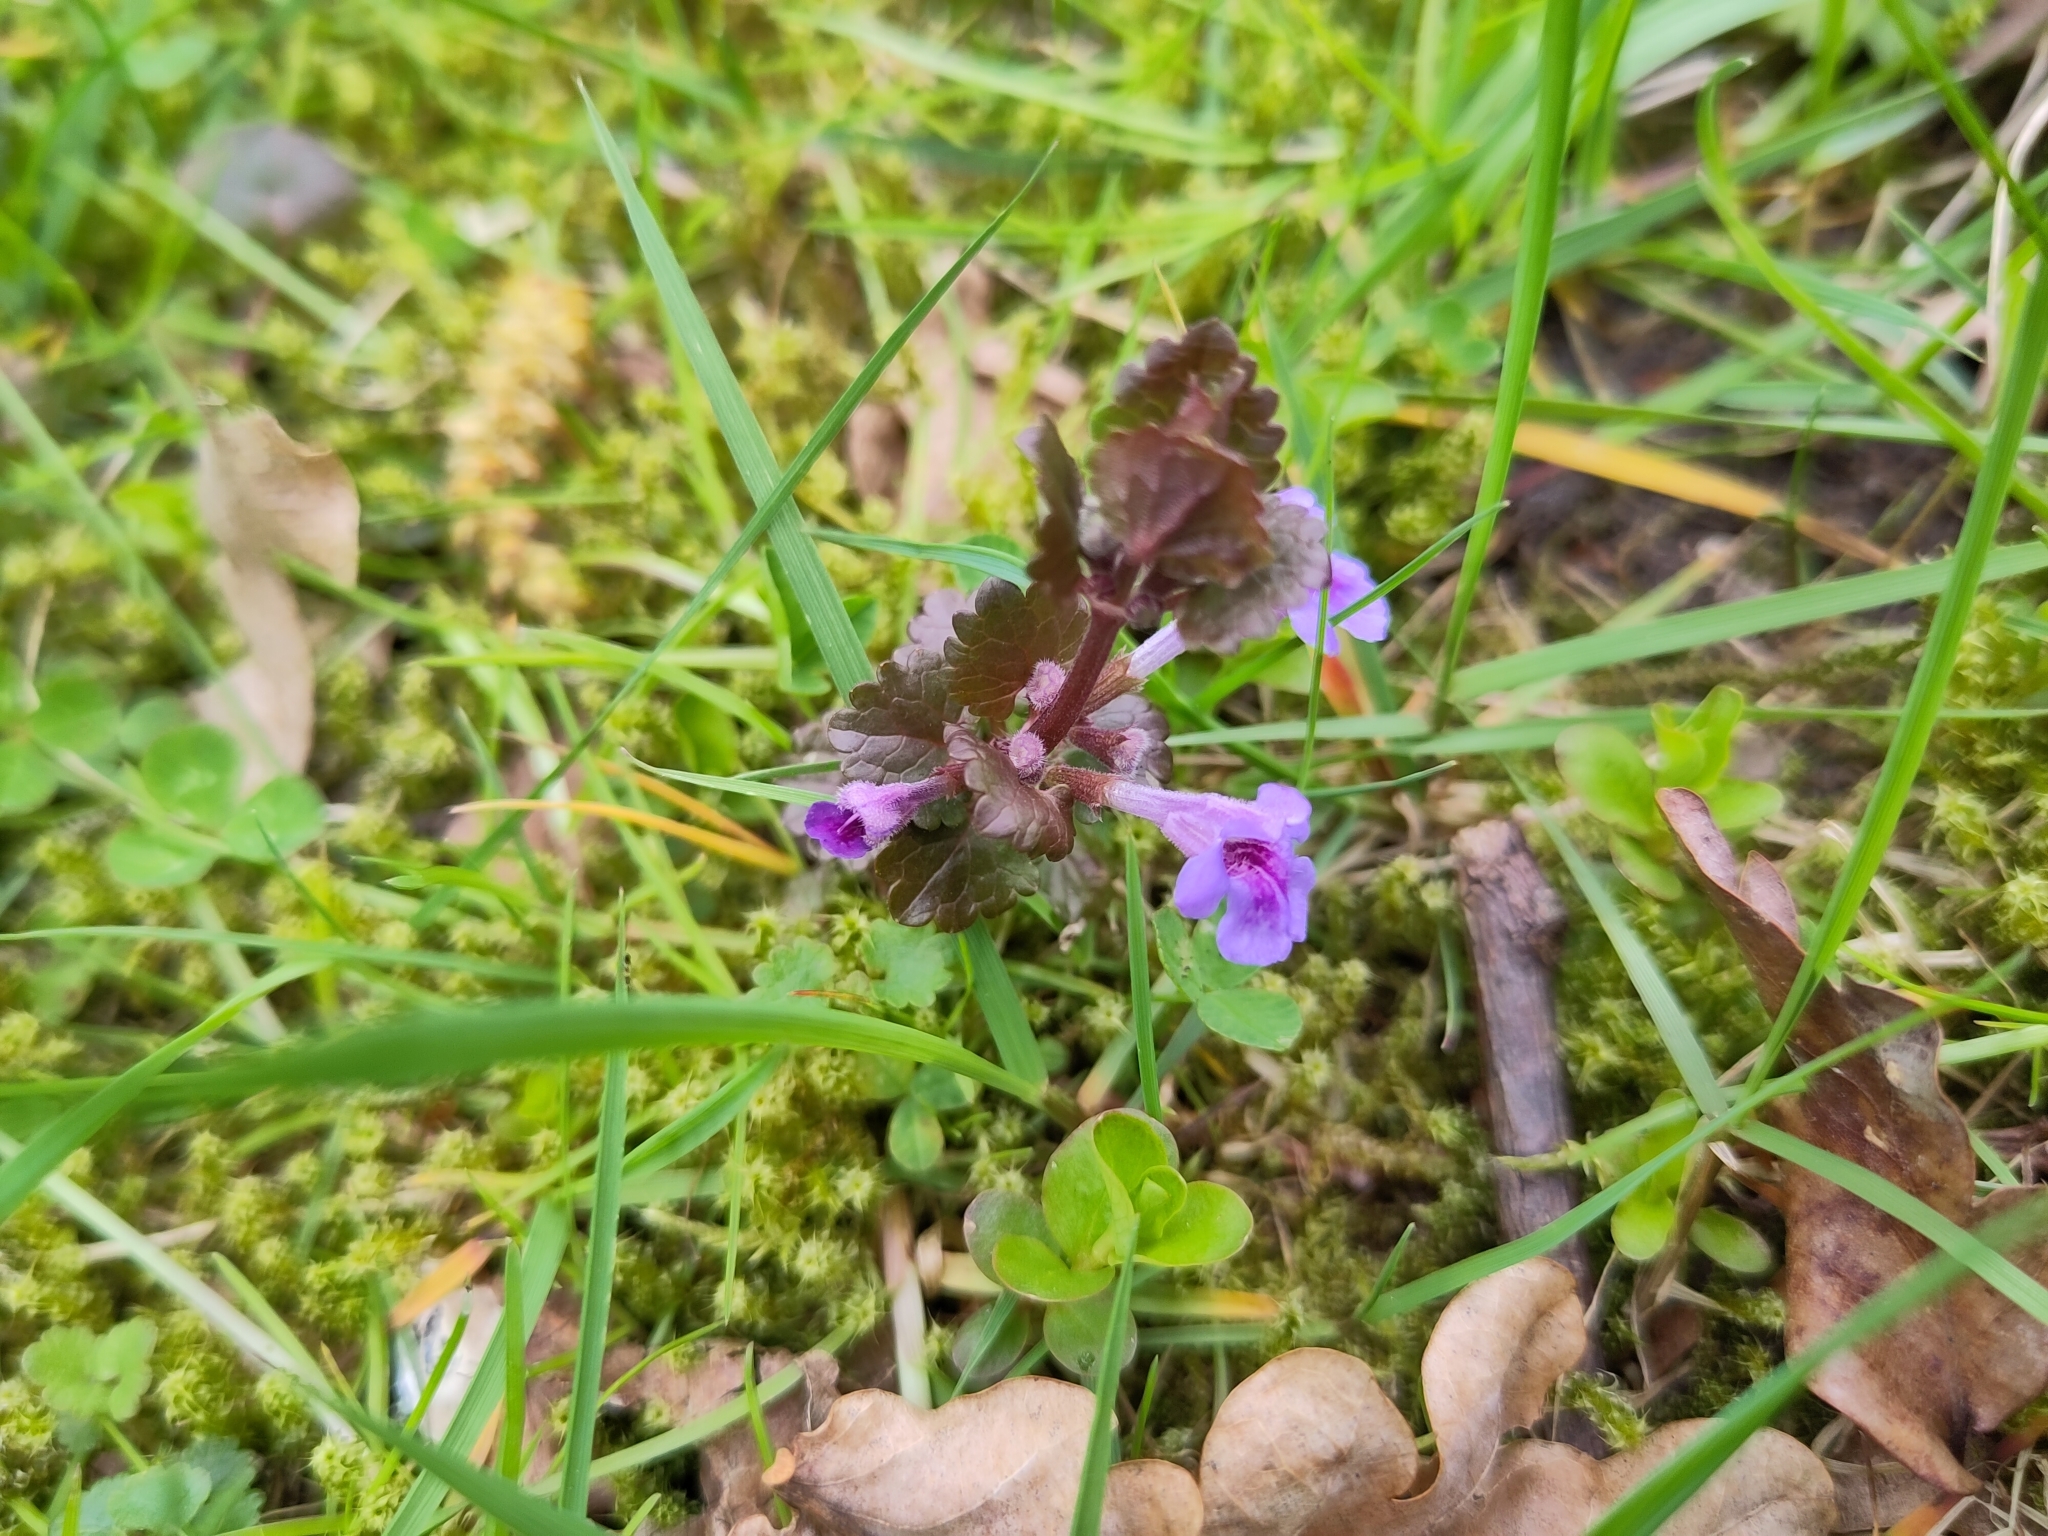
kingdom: Plantae
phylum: Tracheophyta
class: Magnoliopsida
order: Lamiales
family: Lamiaceae
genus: Glechoma
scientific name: Glechoma hederacea
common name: Ground ivy
